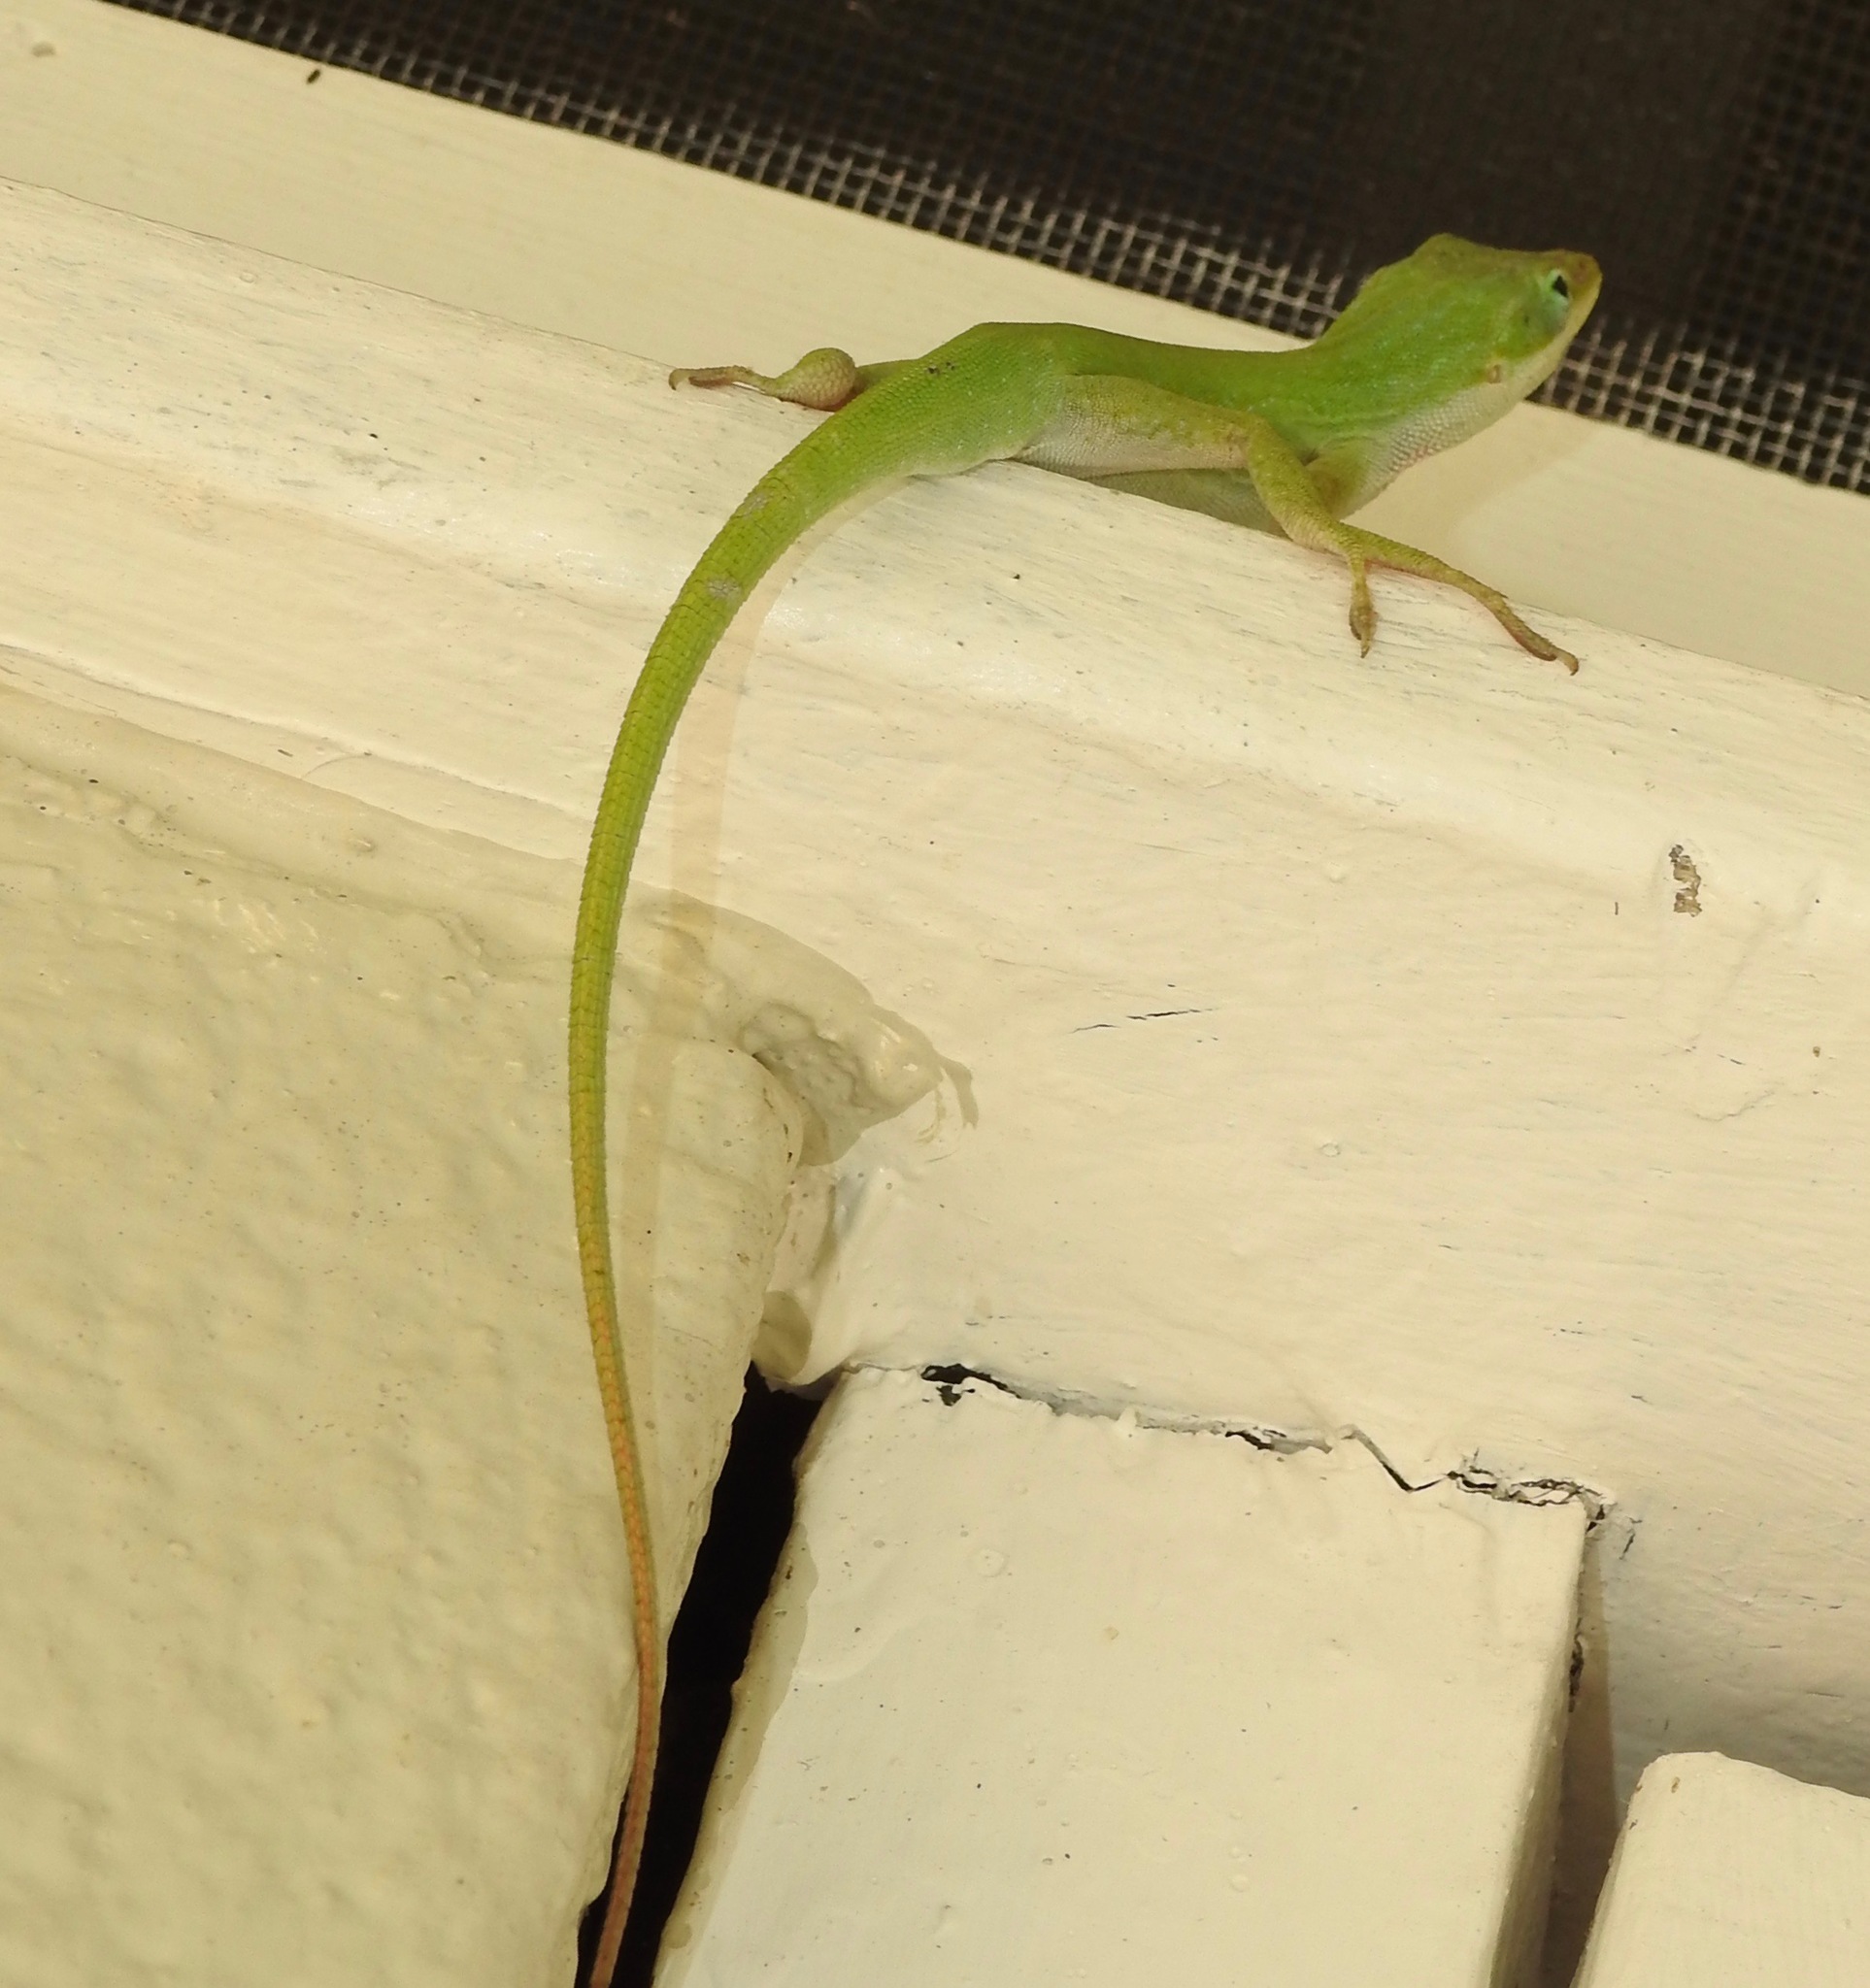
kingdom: Animalia
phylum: Chordata
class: Squamata
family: Dactyloidae
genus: Anolis
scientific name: Anolis carolinensis
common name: Green anole
